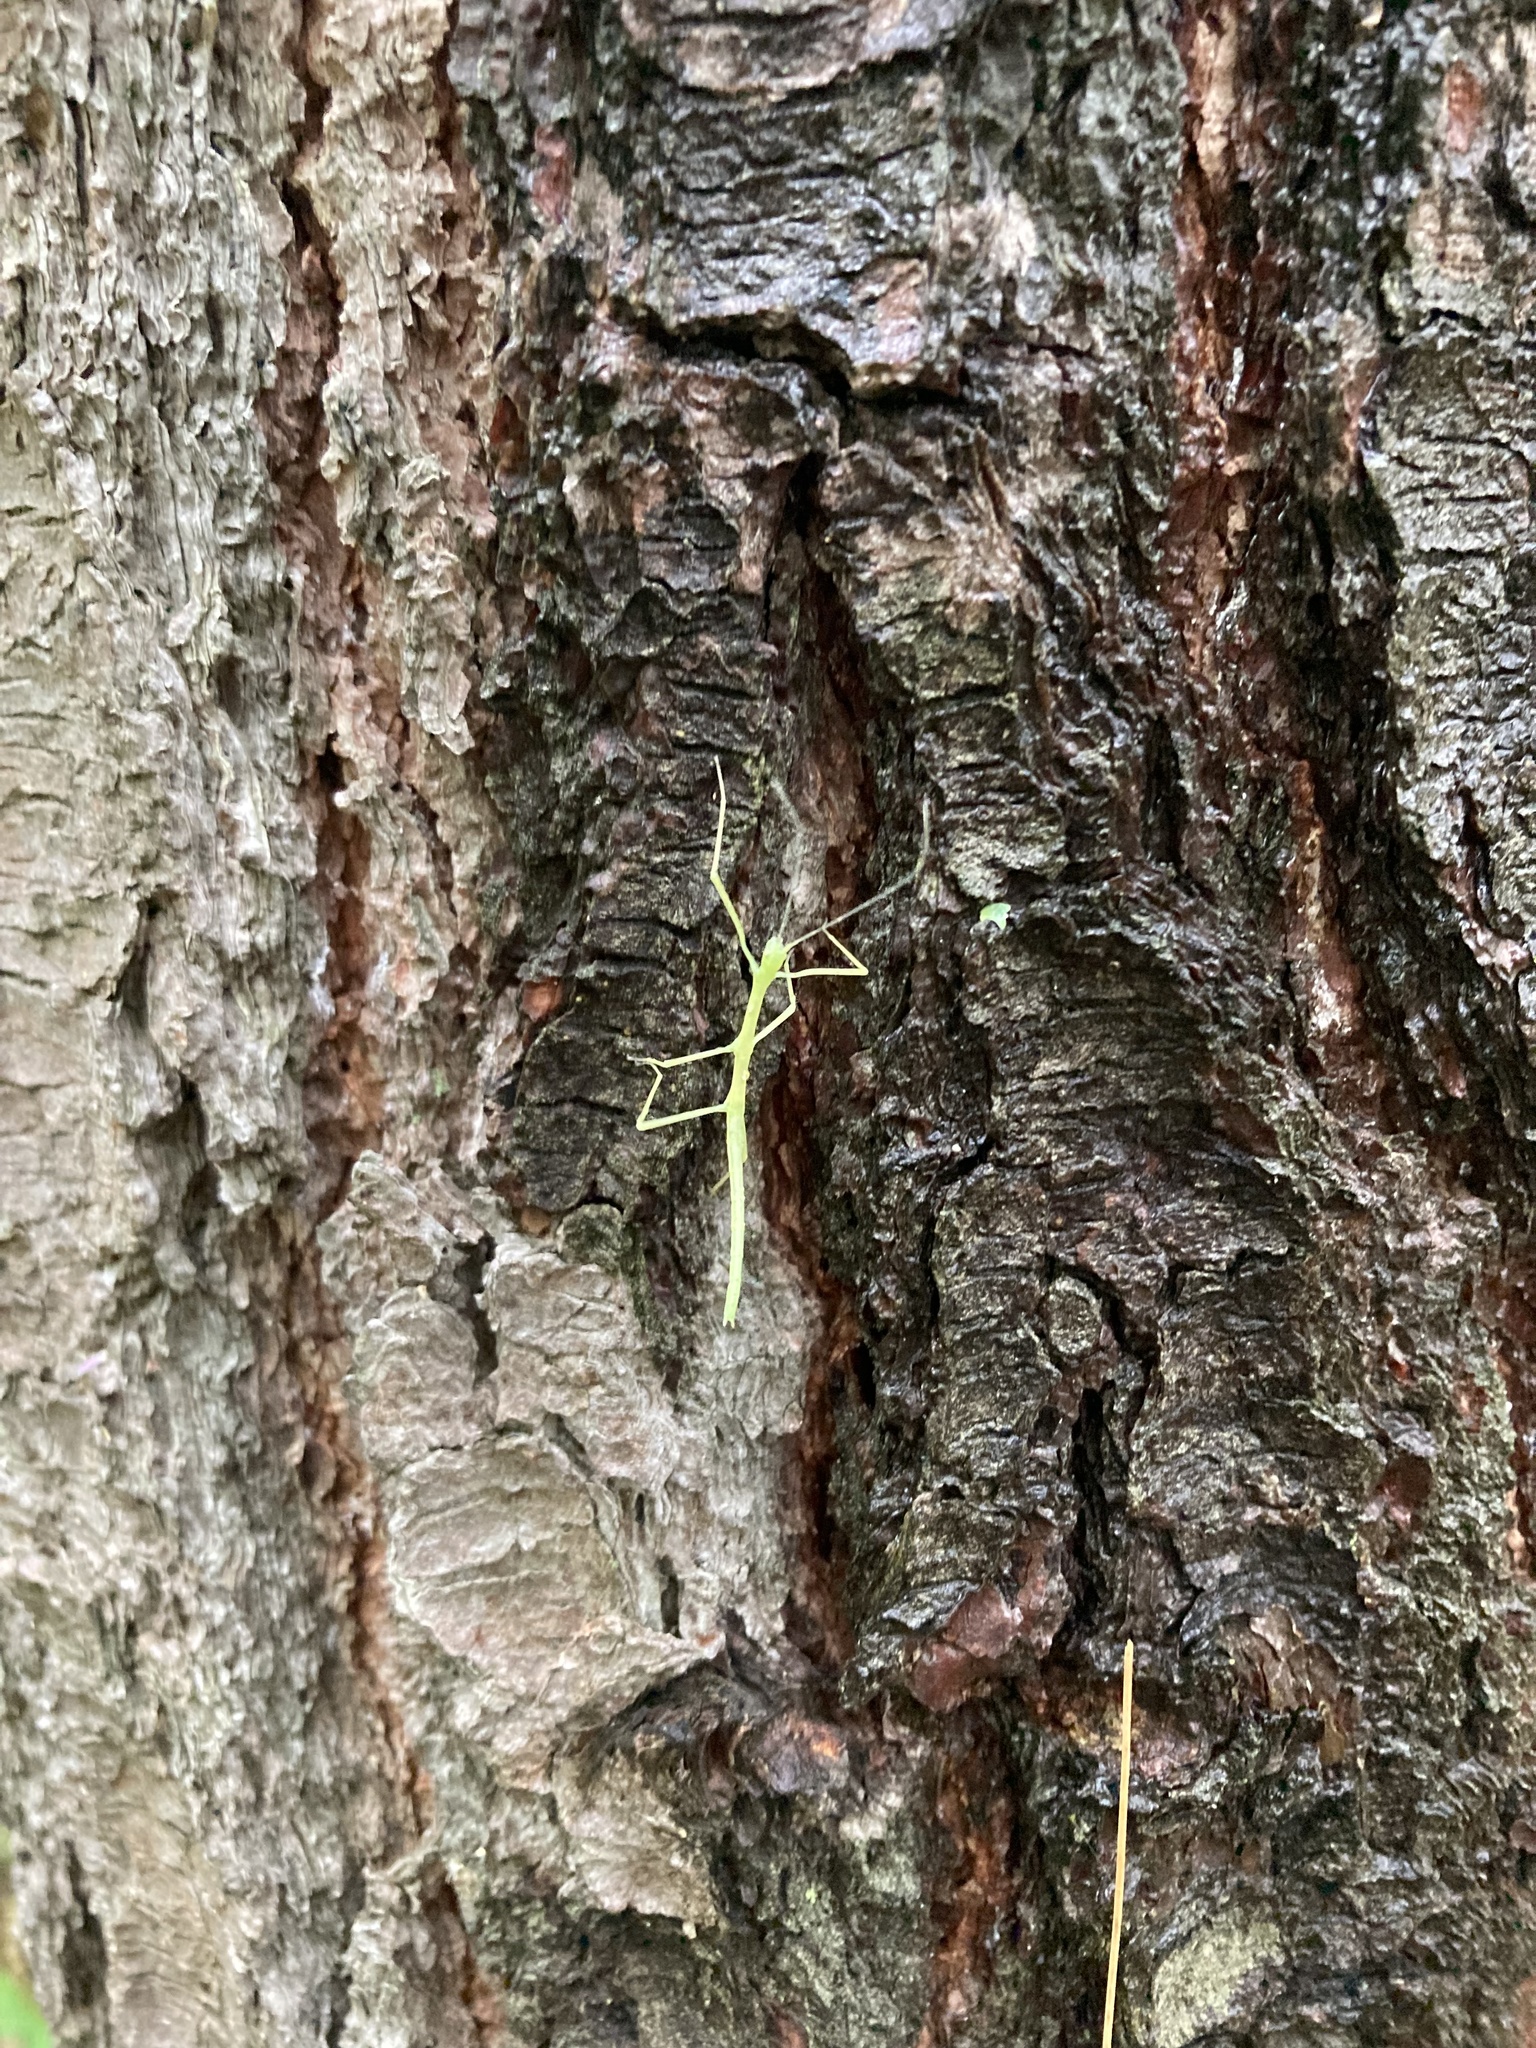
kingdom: Animalia
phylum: Arthropoda
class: Insecta
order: Phasmida
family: Diapheromeridae
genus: Diapheromera
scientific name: Diapheromera femorata
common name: Common american walkingstick
